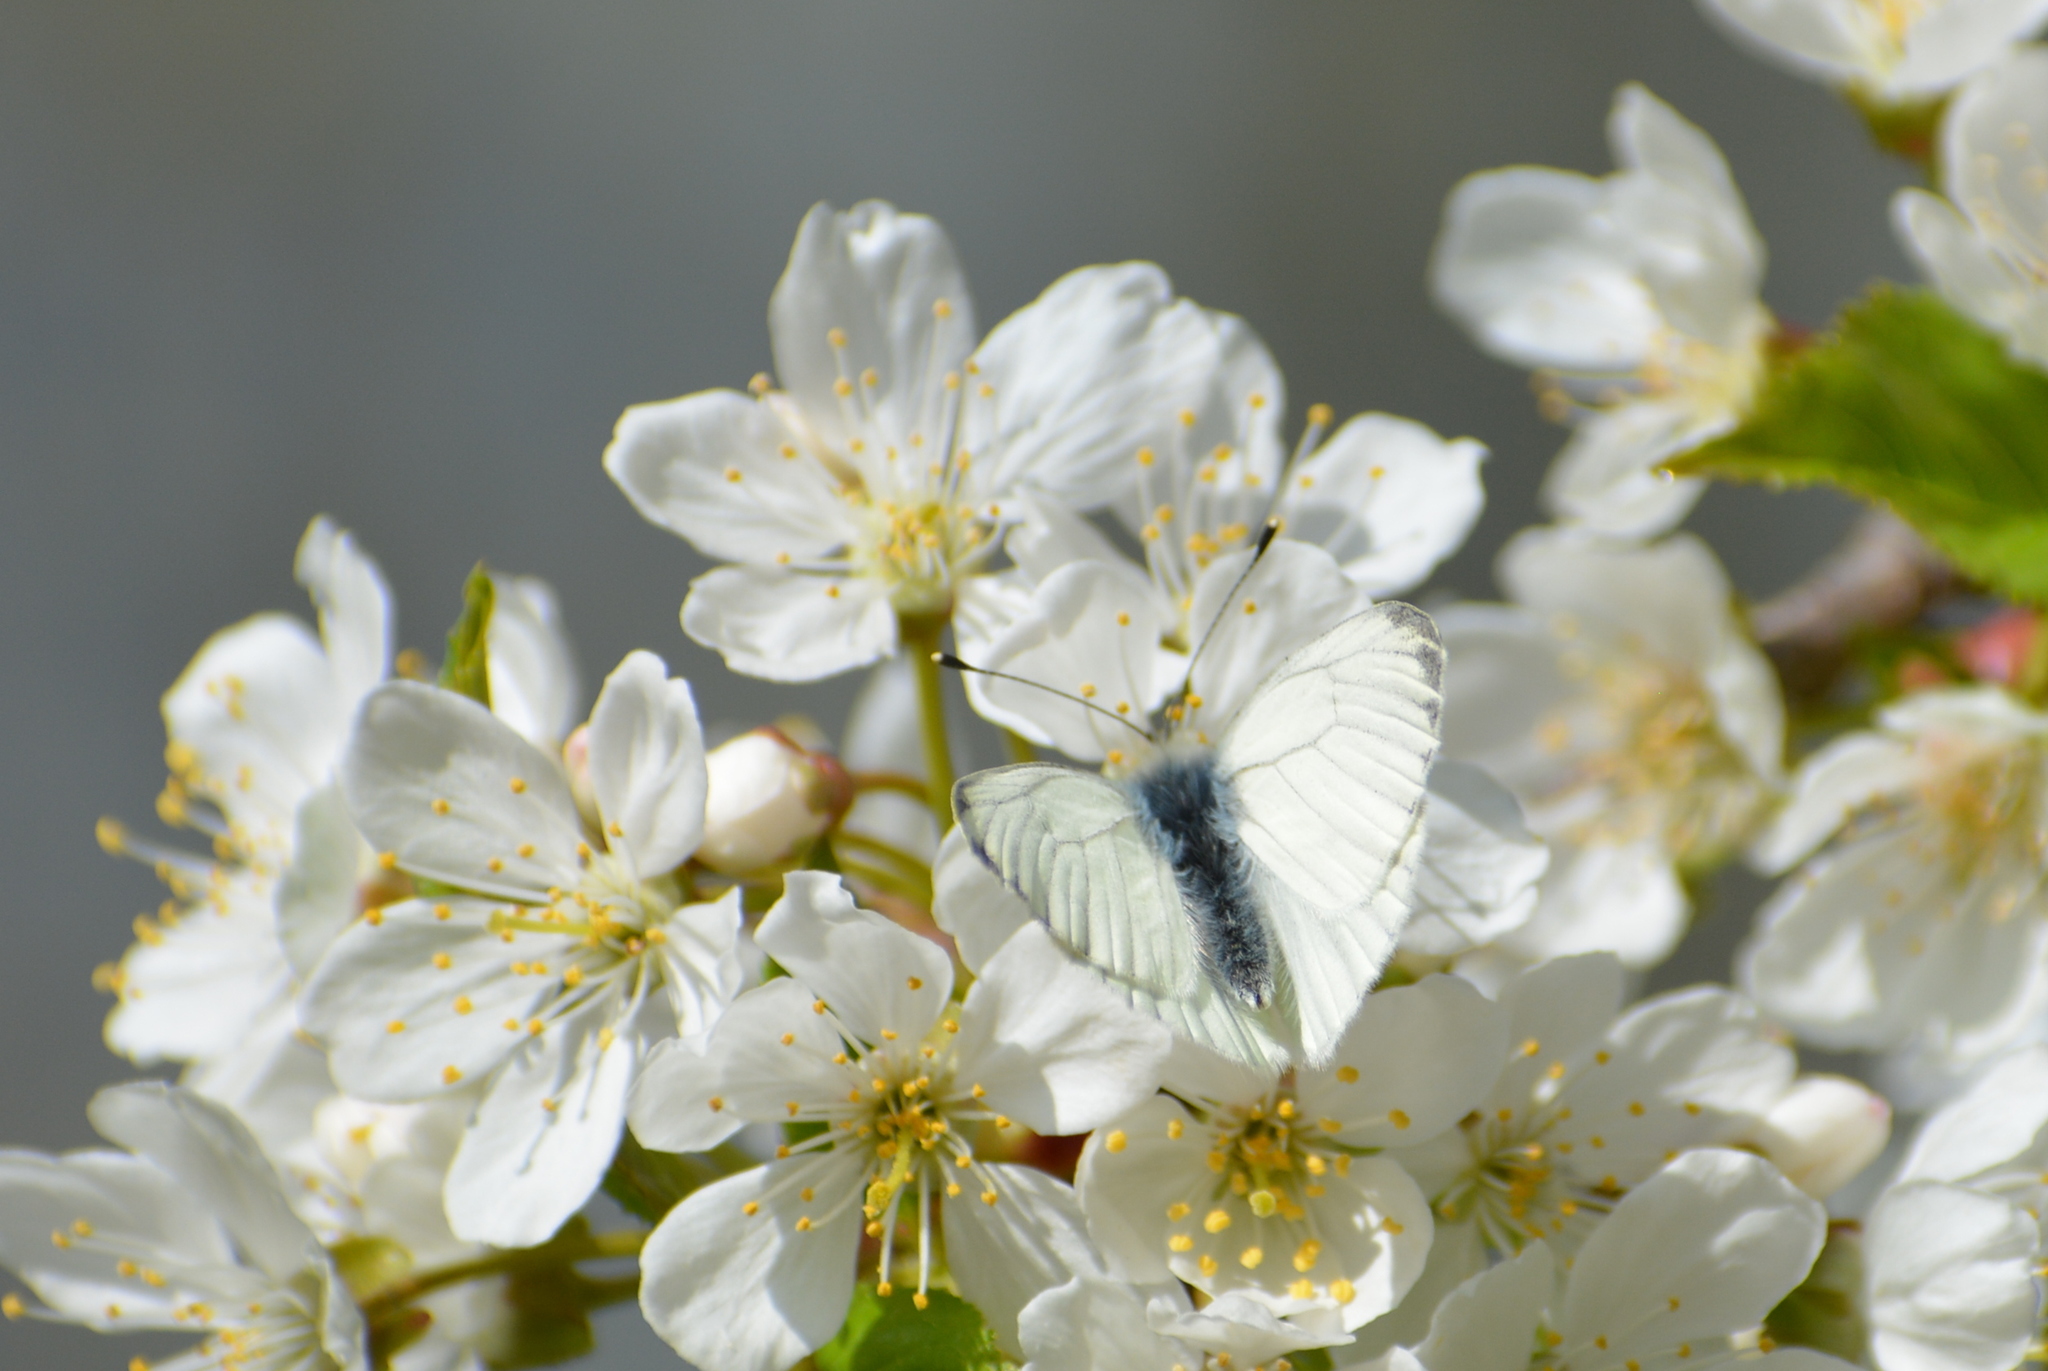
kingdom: Animalia
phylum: Arthropoda
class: Insecta
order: Lepidoptera
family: Pieridae
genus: Pieris
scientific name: Pieris napi
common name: Green-veined white
